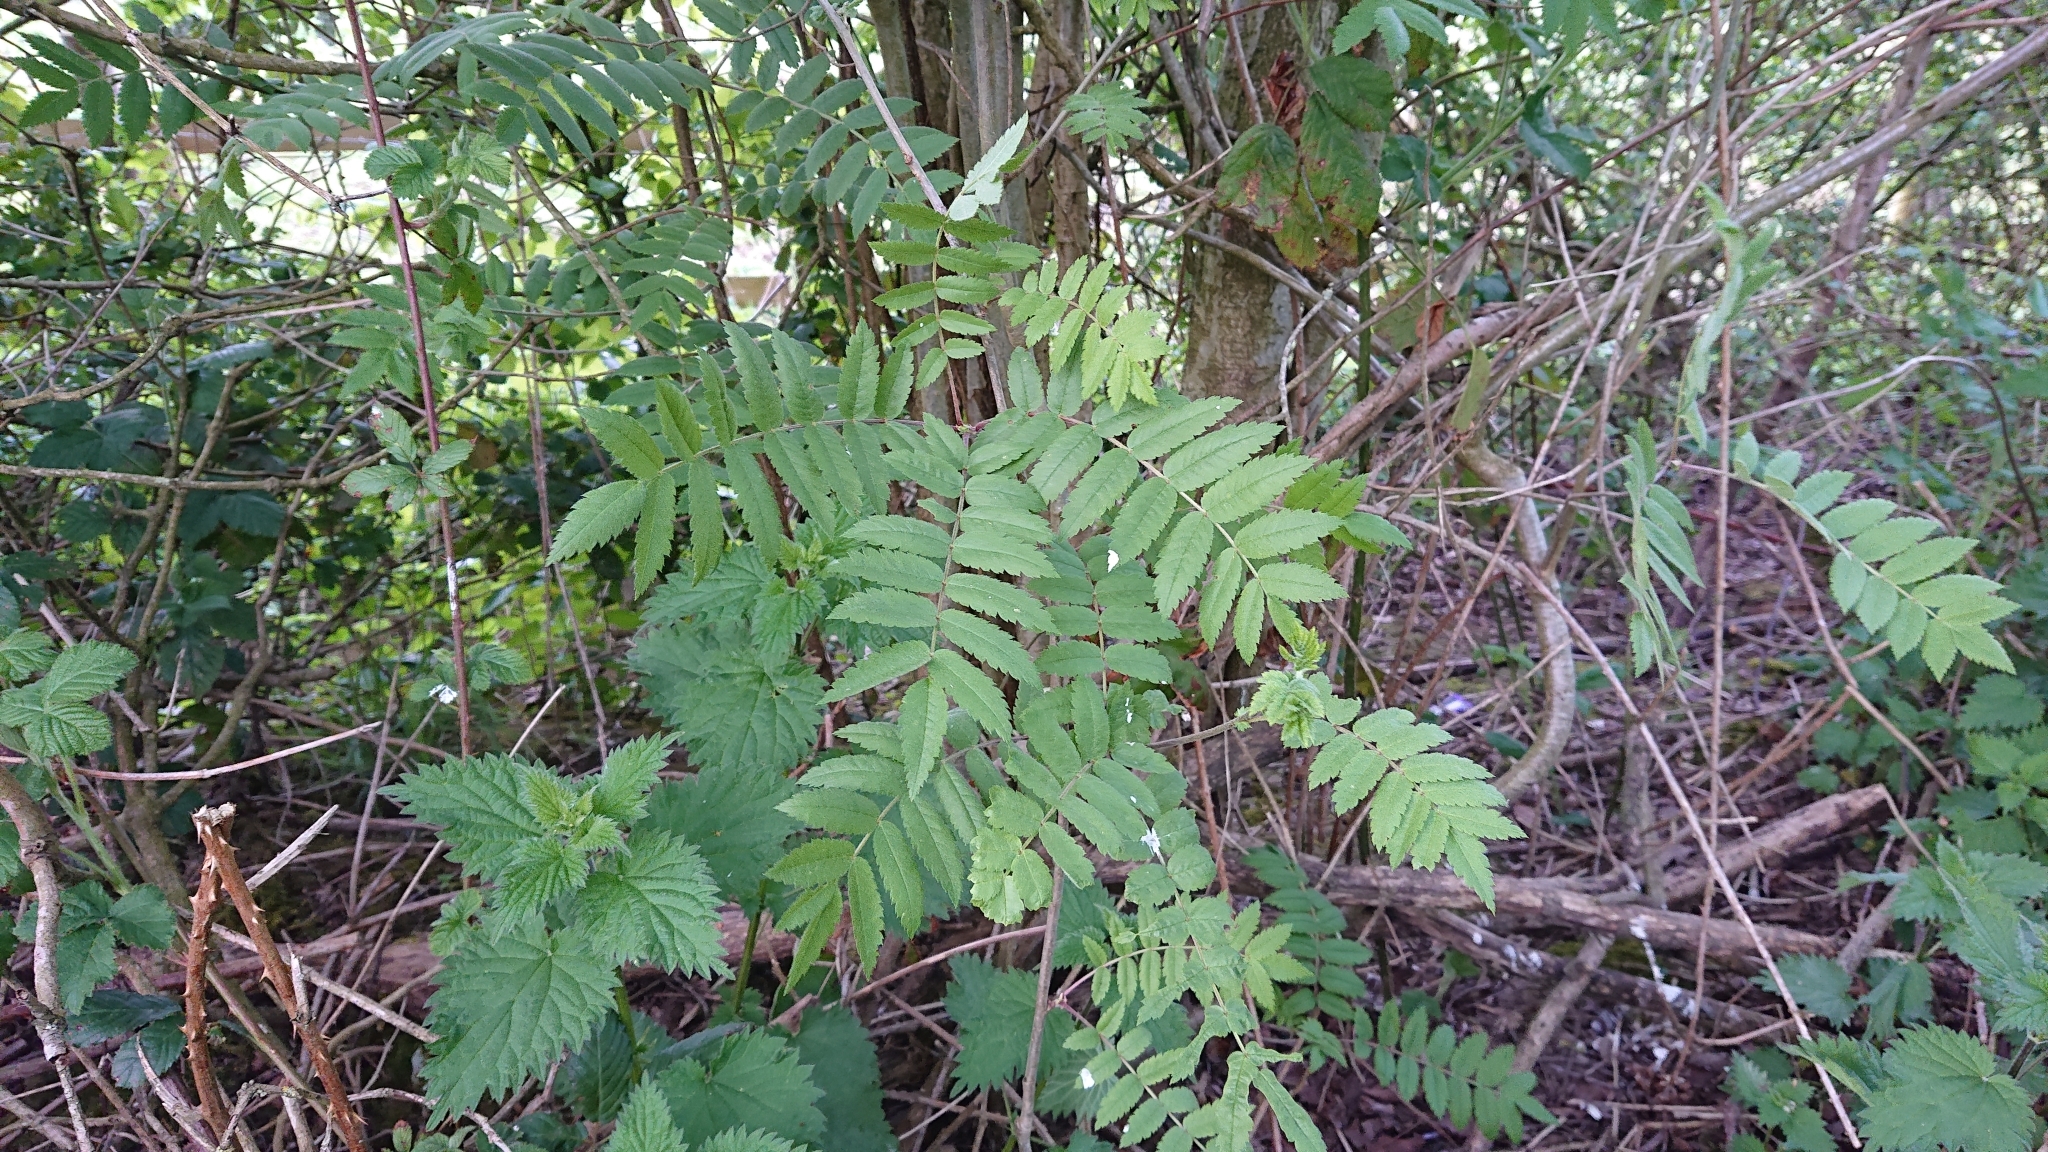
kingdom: Plantae
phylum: Tracheophyta
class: Magnoliopsida
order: Rosales
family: Rosaceae
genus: Sorbus
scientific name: Sorbus aucuparia
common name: Rowan
